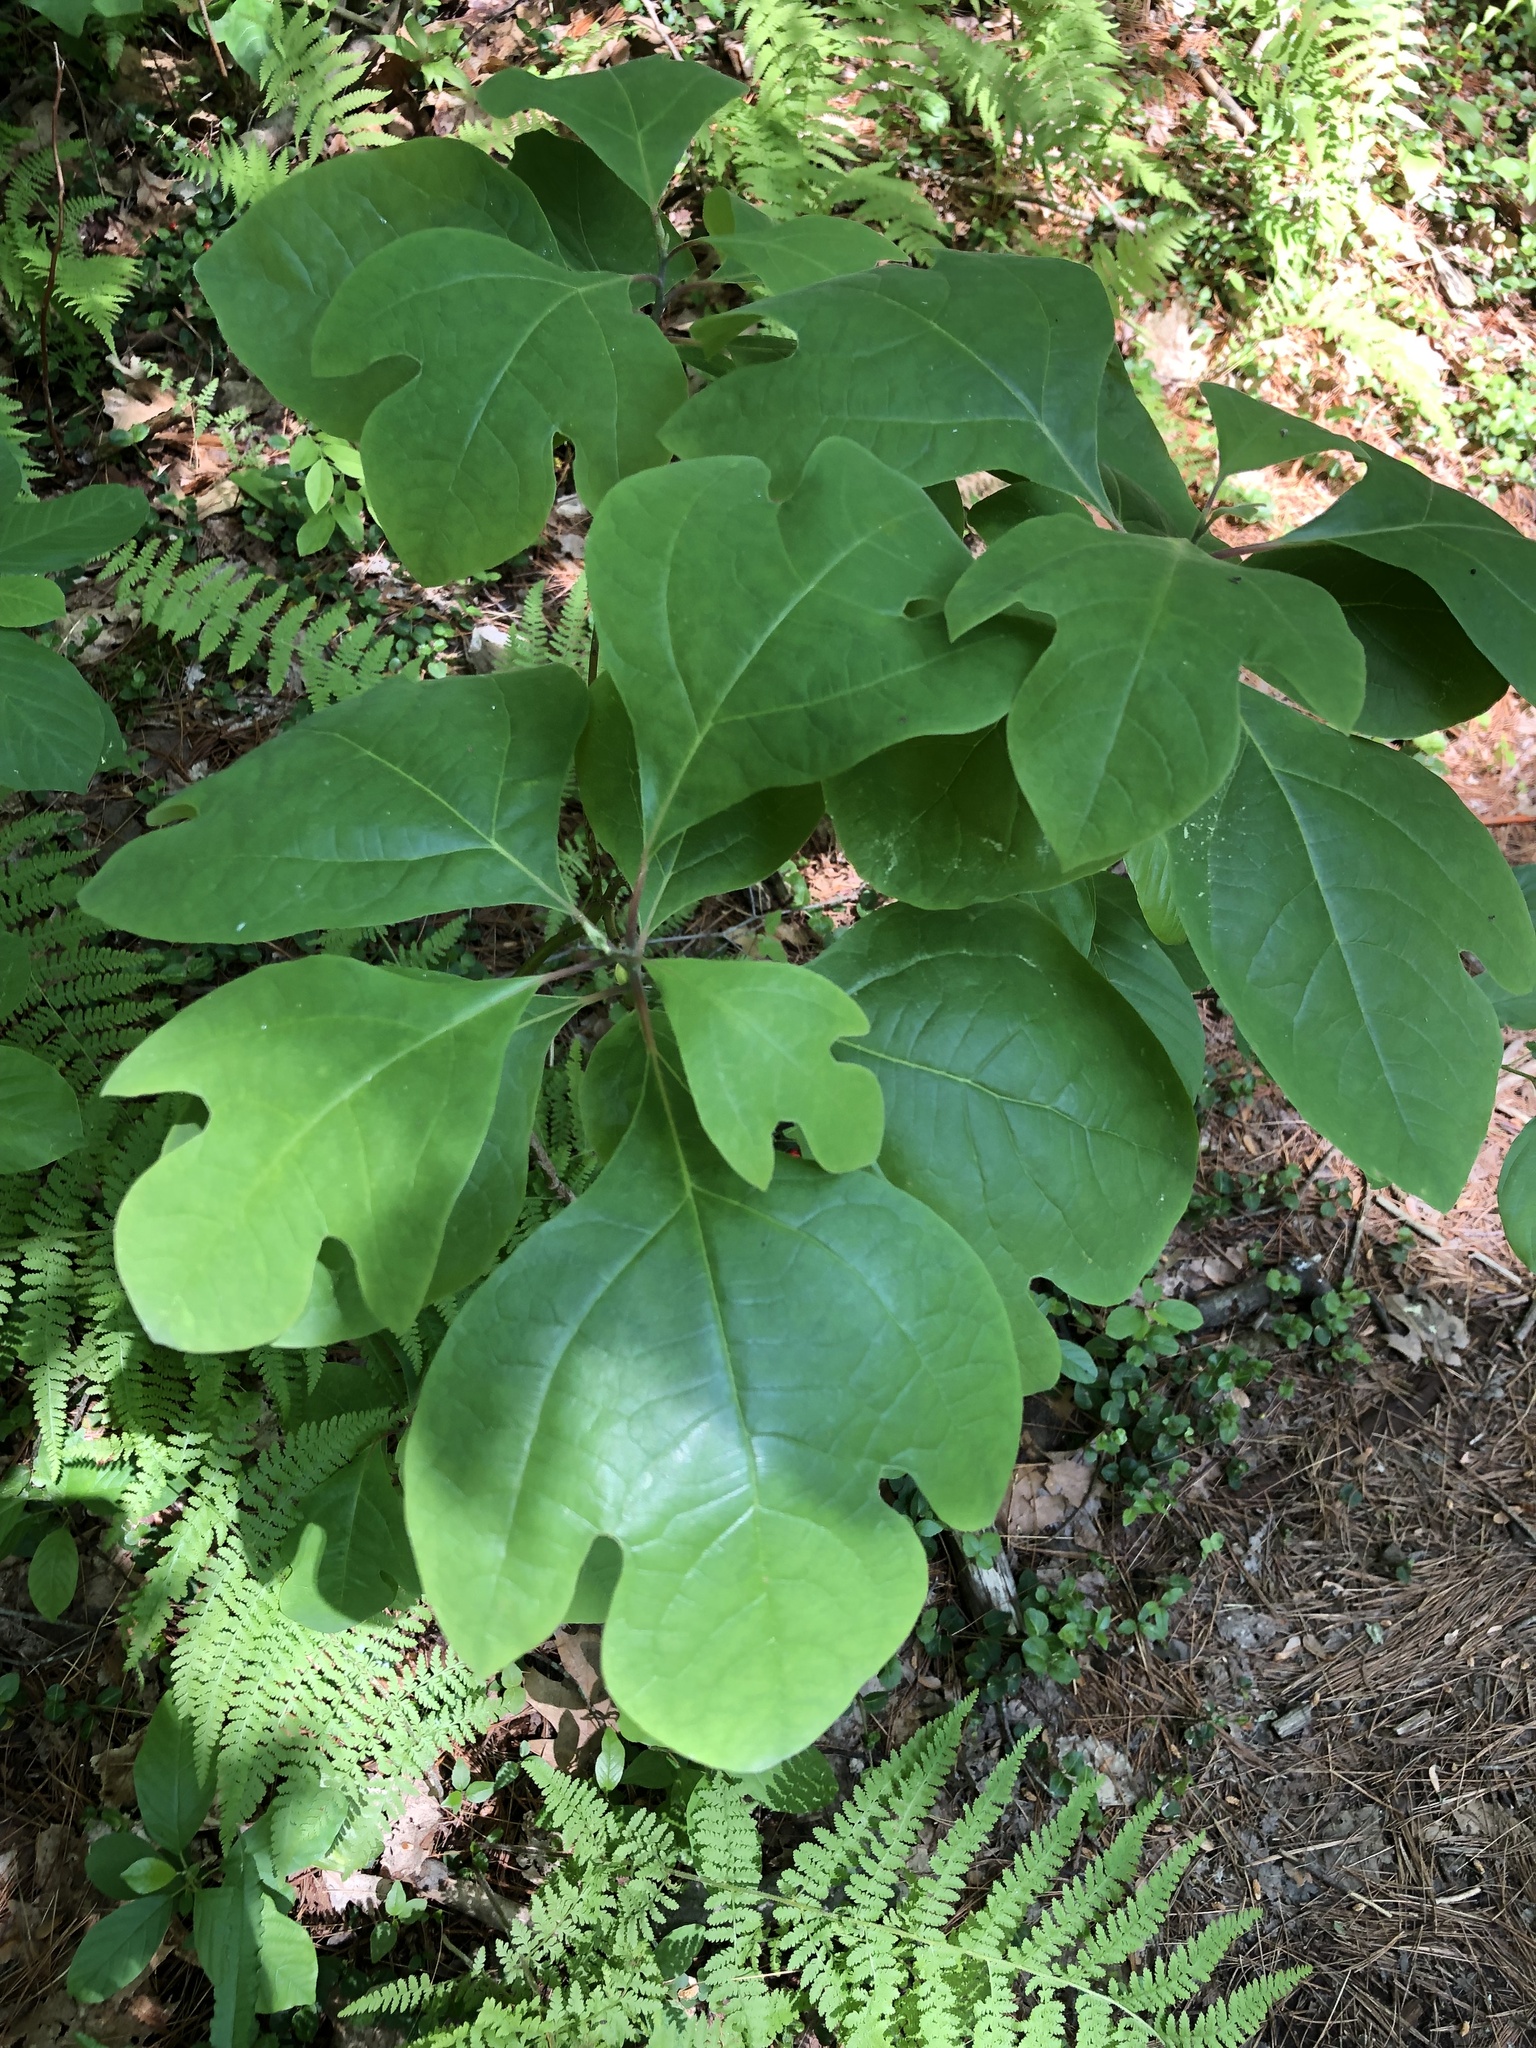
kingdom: Plantae
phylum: Tracheophyta
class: Magnoliopsida
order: Laurales
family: Lauraceae
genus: Sassafras
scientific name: Sassafras albidum
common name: Sassafras
